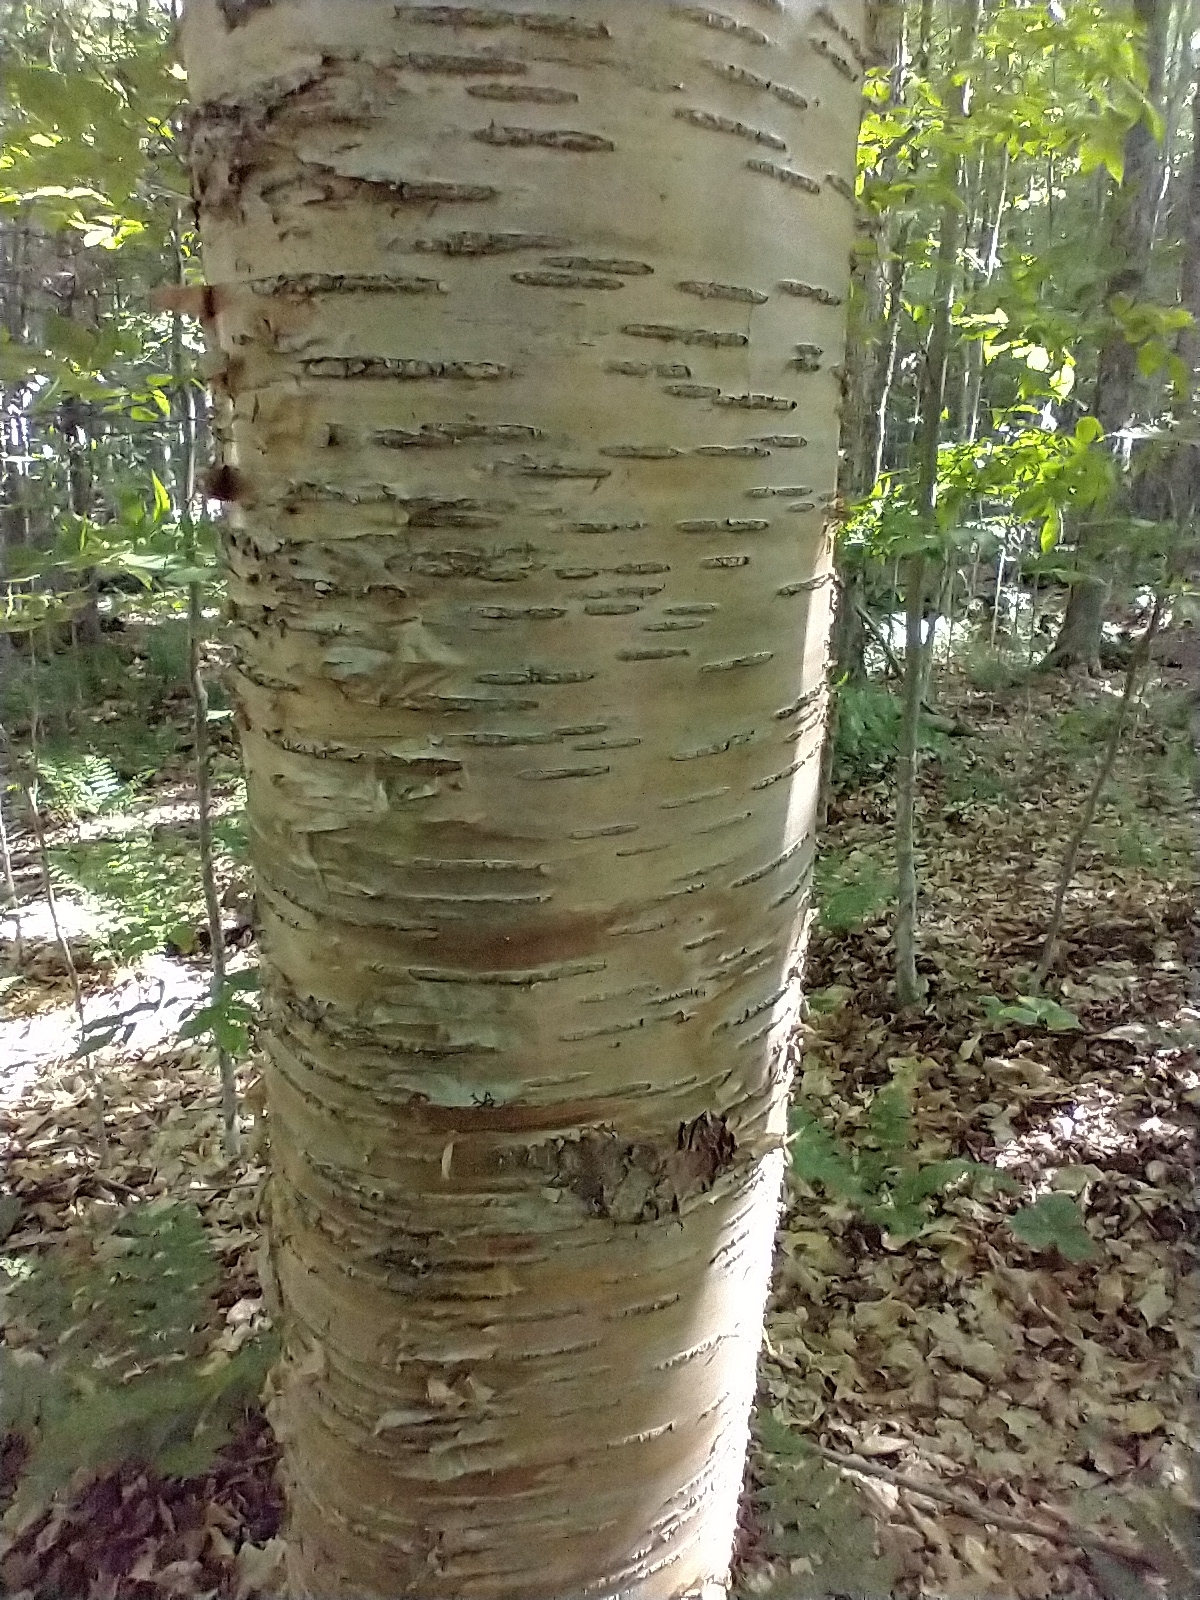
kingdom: Plantae
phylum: Tracheophyta
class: Magnoliopsida
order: Fagales
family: Betulaceae
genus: Betula
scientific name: Betula alleghaniensis
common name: Yellow birch
